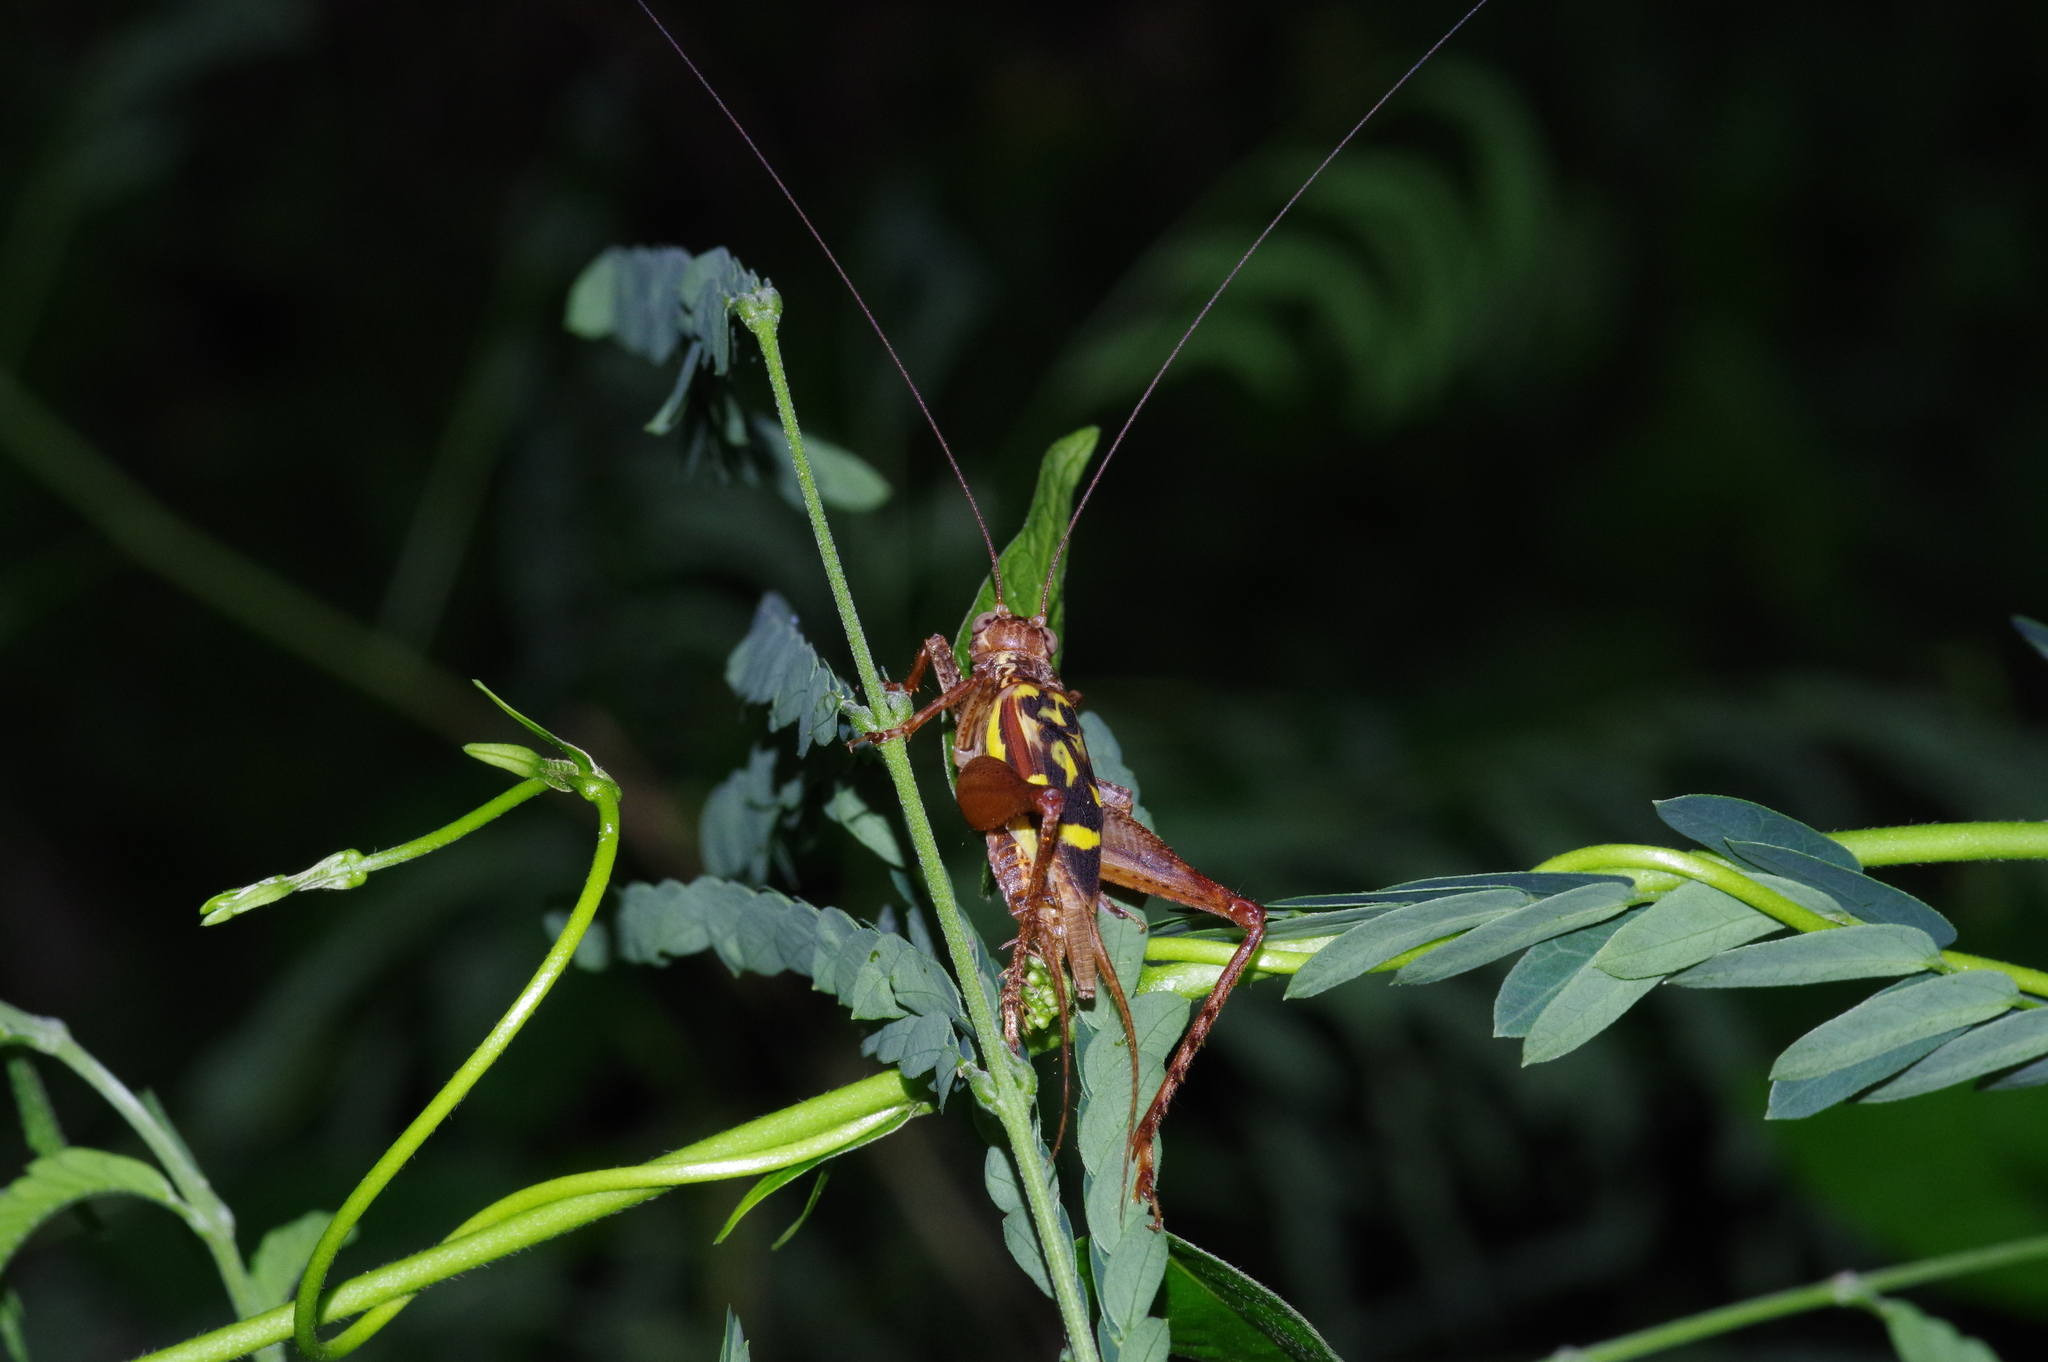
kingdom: Animalia
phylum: Arthropoda
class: Insecta
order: Orthoptera
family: Gryllidae
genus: Cardiodactylus
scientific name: Cardiodactylus guttulus
